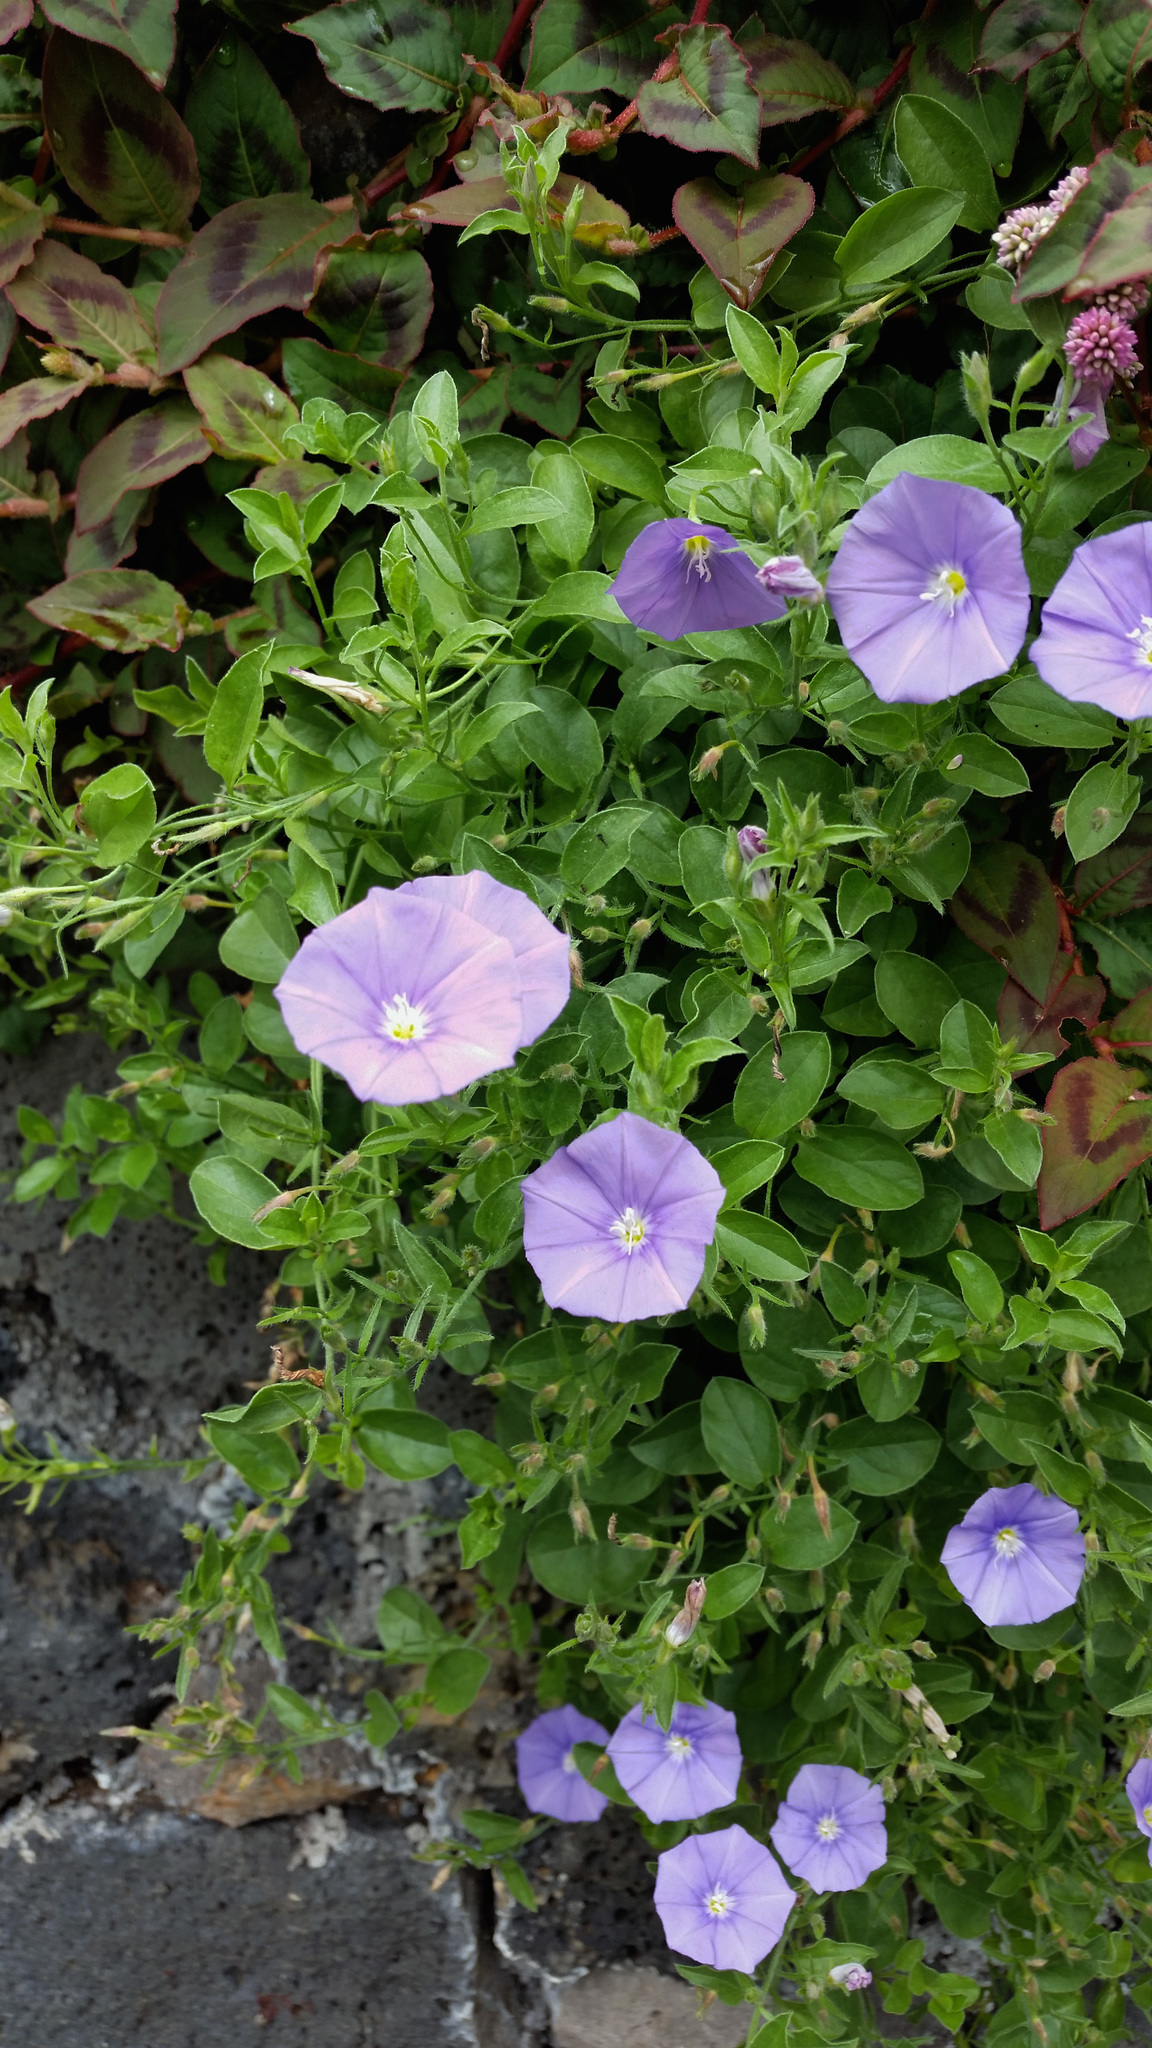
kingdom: Plantae
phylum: Tracheophyta
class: Magnoliopsida
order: Solanales
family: Convolvulaceae
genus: Convolvulus
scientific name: Convolvulus sabatius
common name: Ground blue-convolvulus
